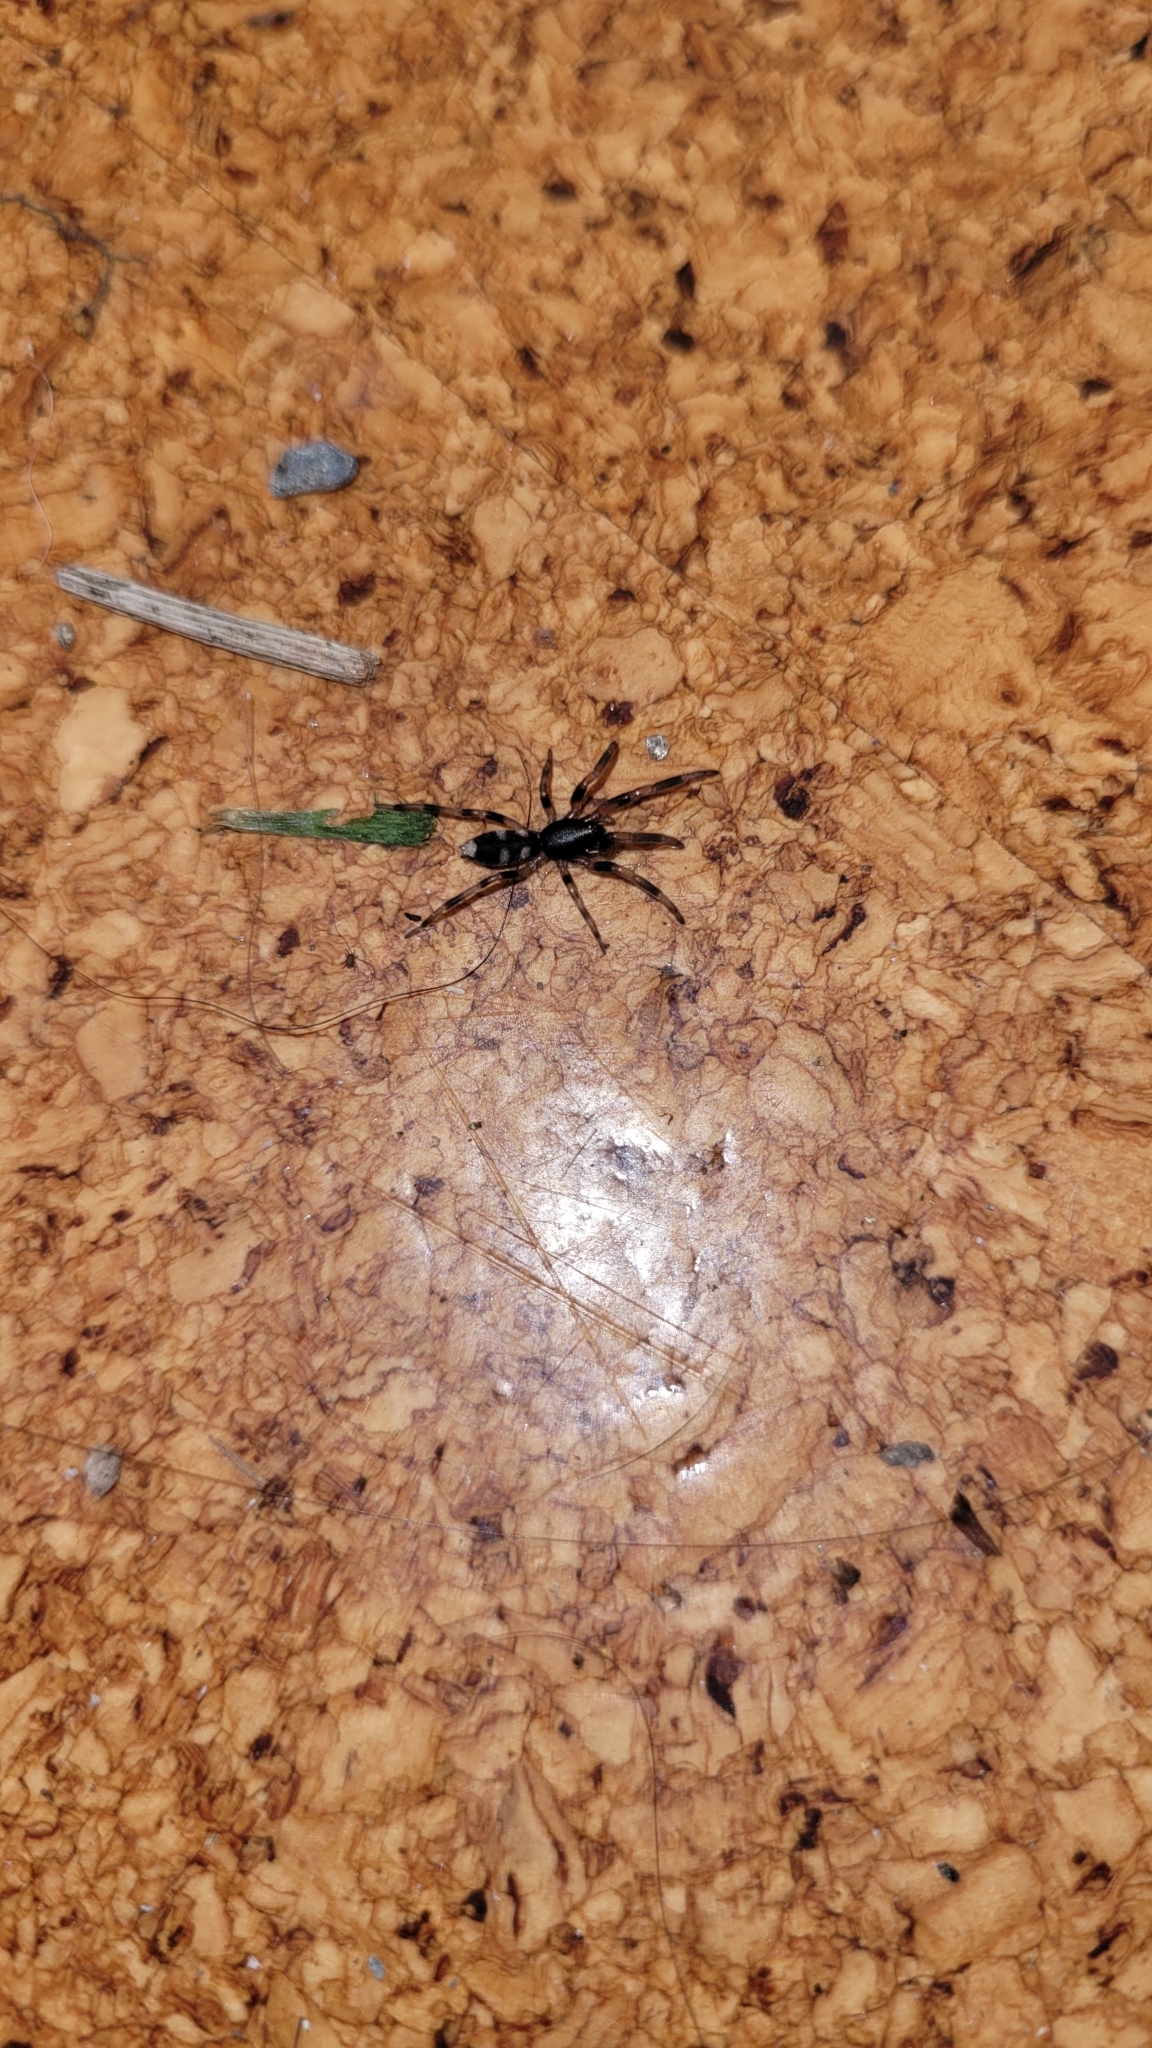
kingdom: Animalia
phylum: Arthropoda
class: Arachnida
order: Araneae
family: Lamponidae
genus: Lampona
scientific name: Lampona cylindrata
